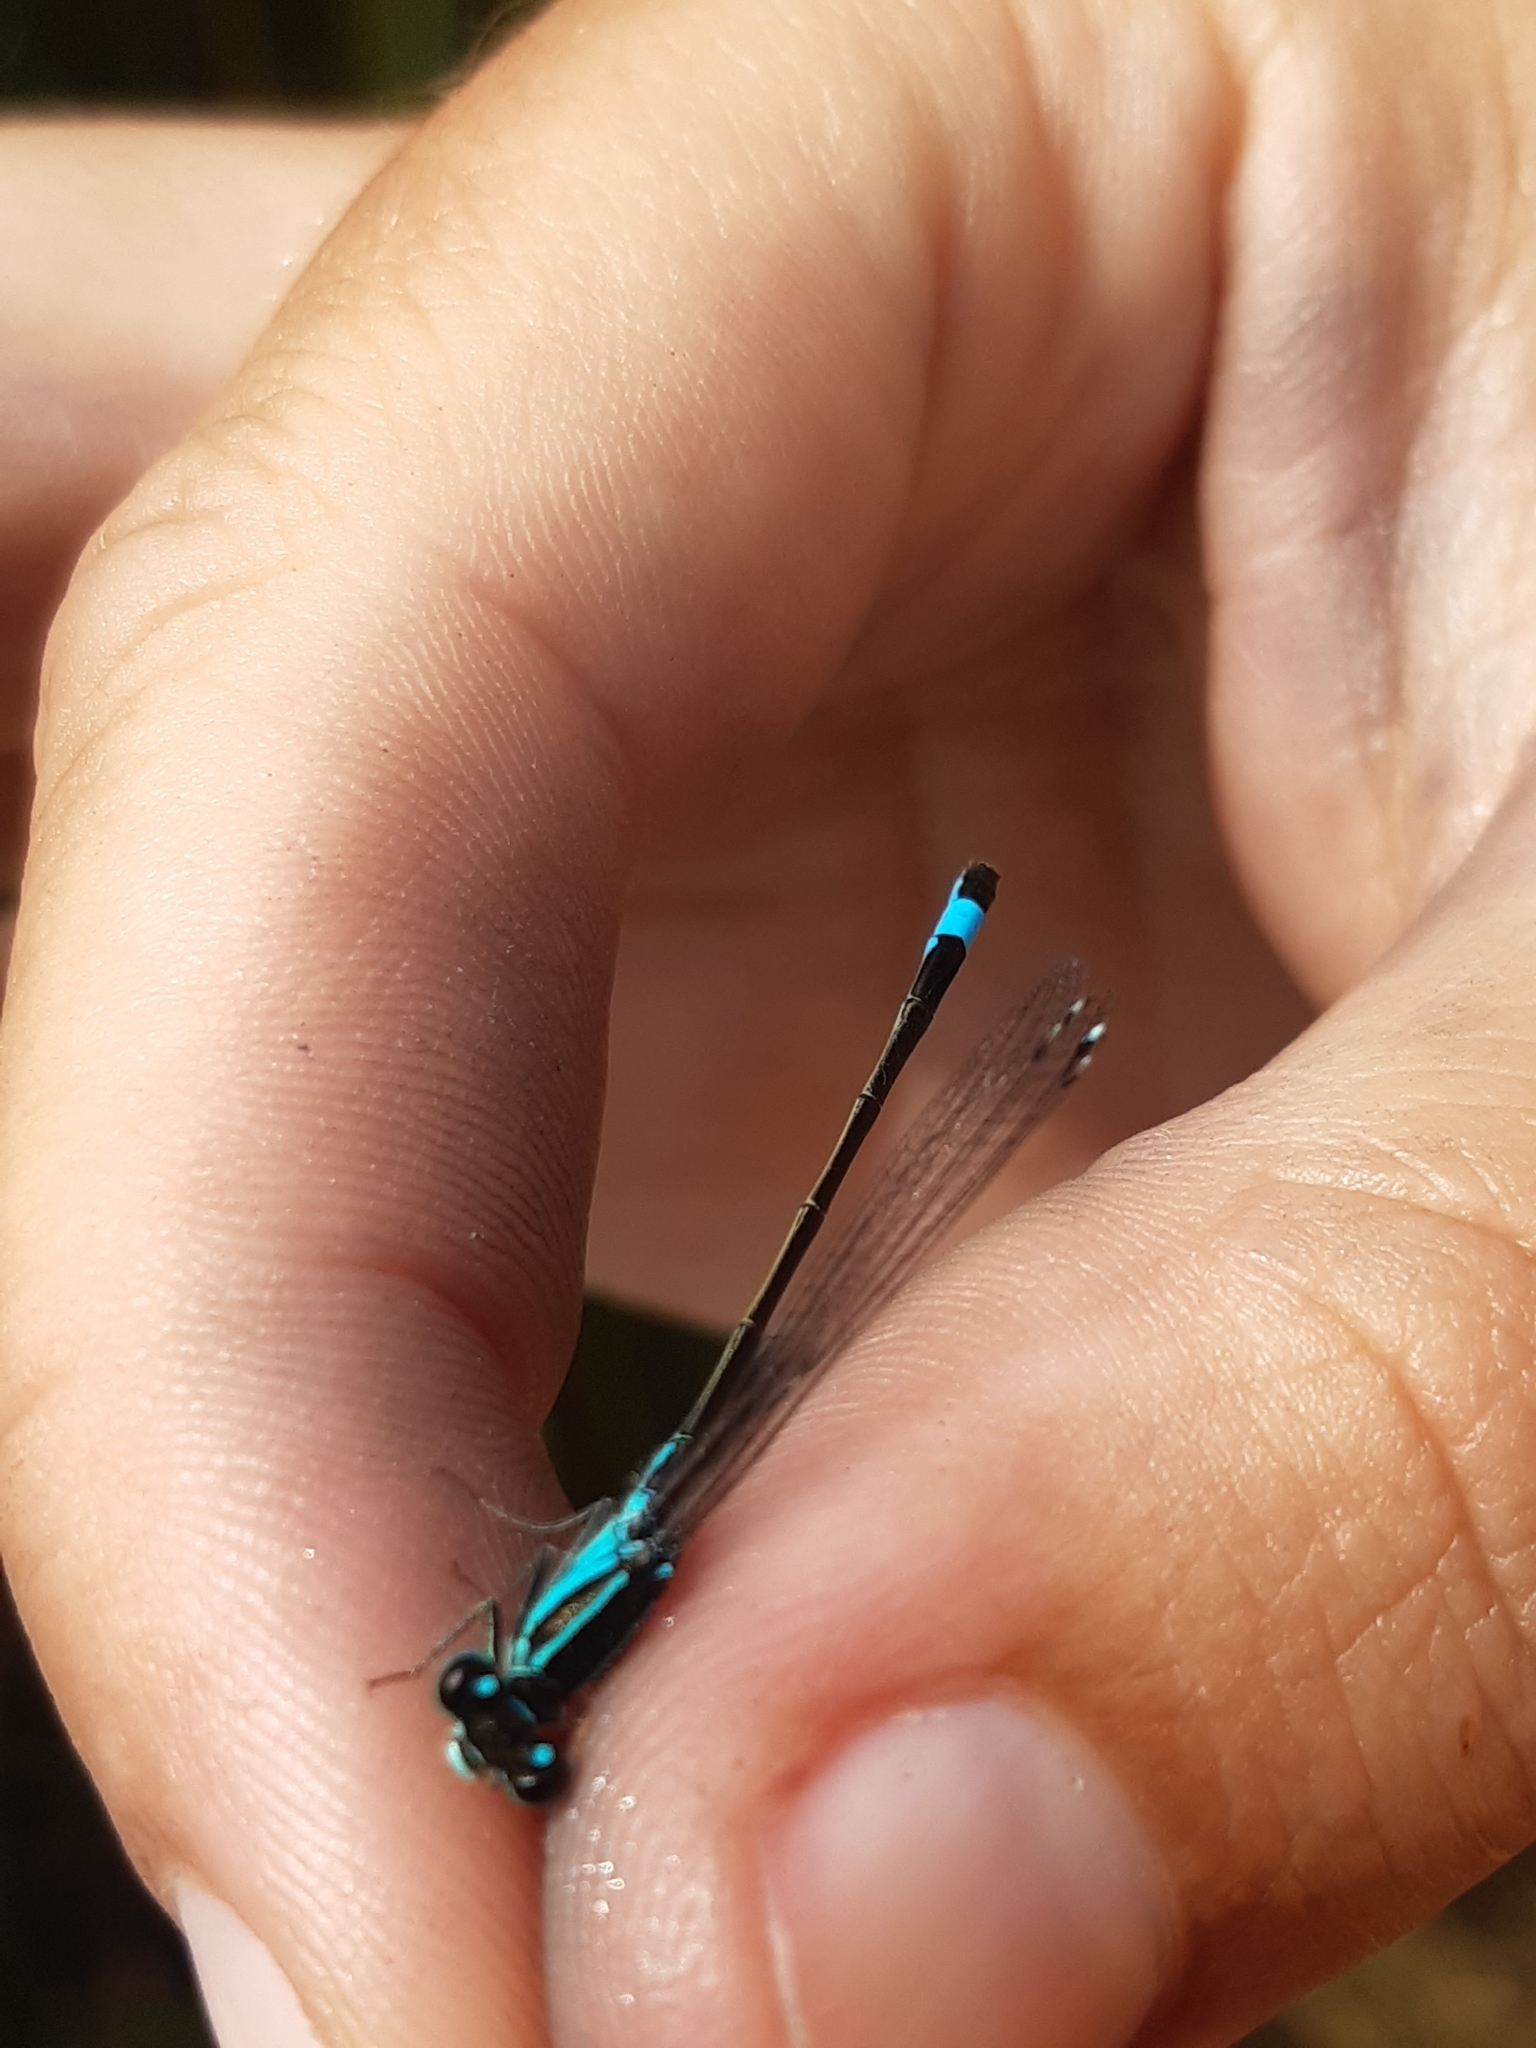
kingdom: Animalia
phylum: Arthropoda
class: Insecta
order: Odonata
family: Coenagrionidae
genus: Ischnura
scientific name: Ischnura elegans
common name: Blue-tailed damselfly
